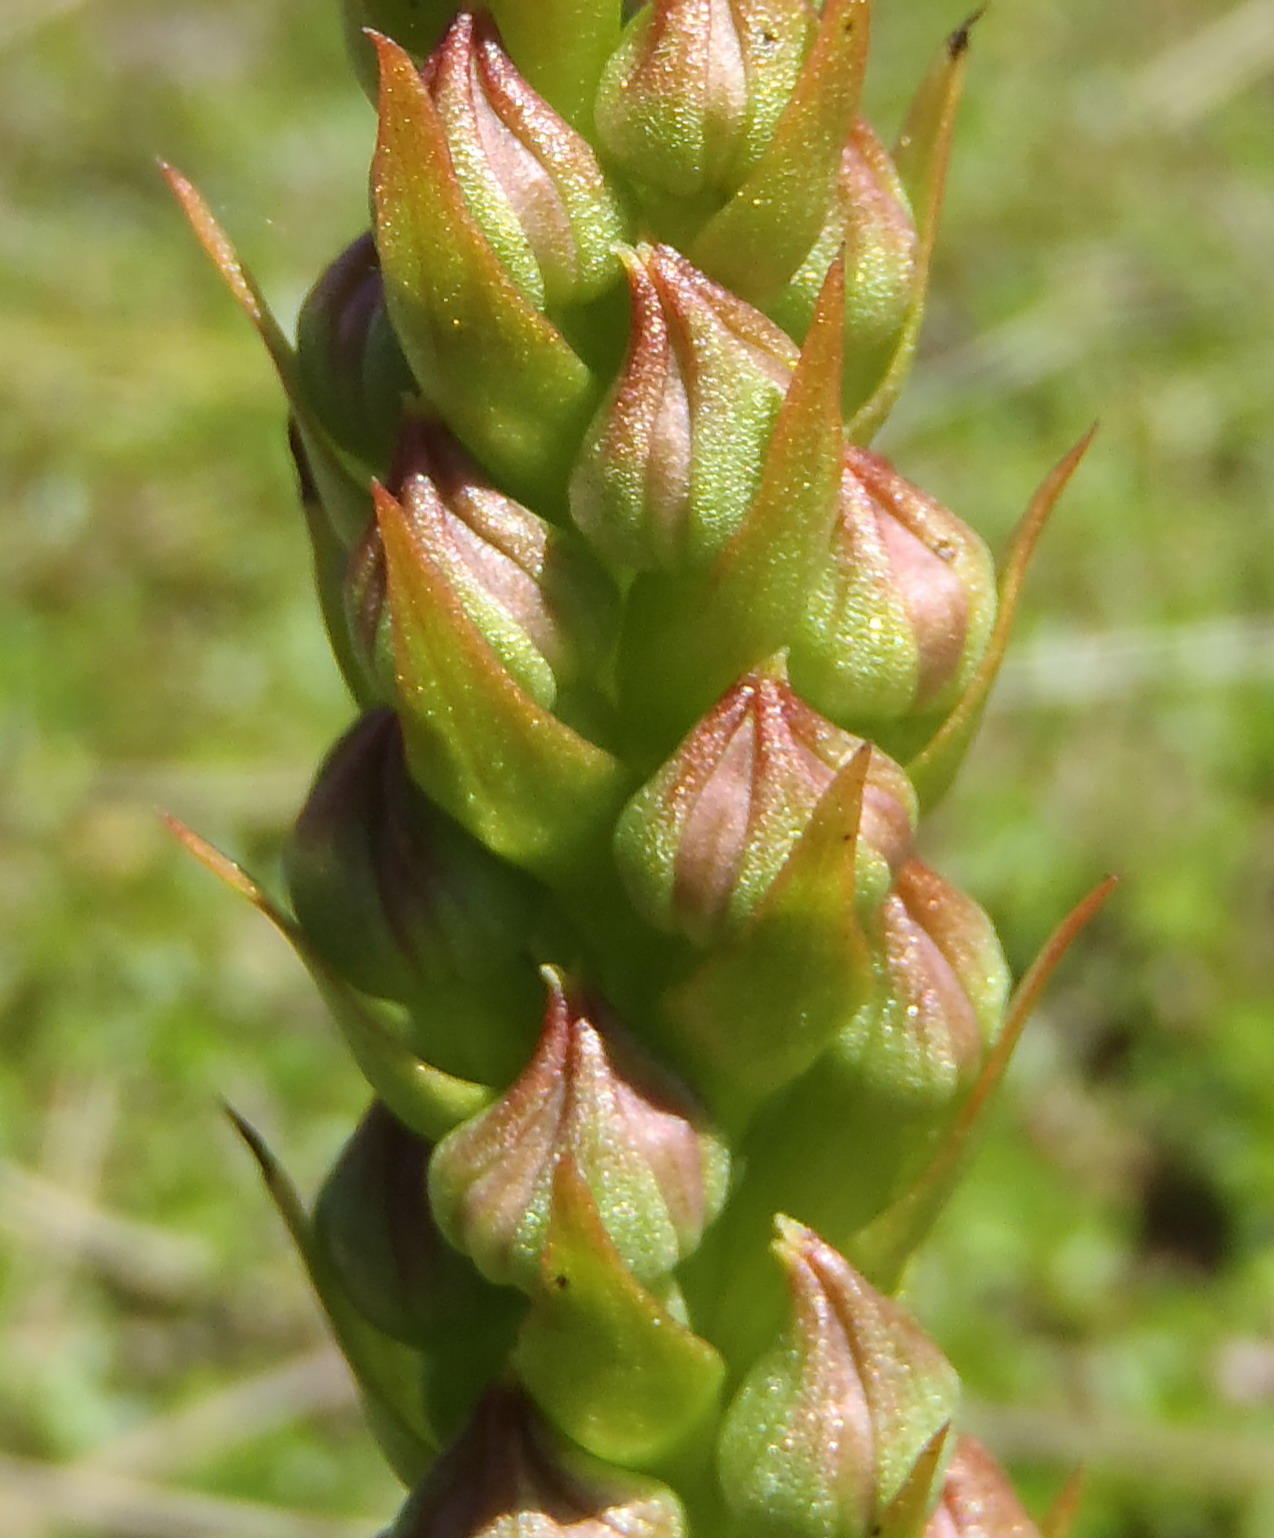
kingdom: Plantae
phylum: Tracheophyta
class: Liliopsida
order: Asparagales
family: Orchidaceae
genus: Evotella
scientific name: Evotella carnosa
